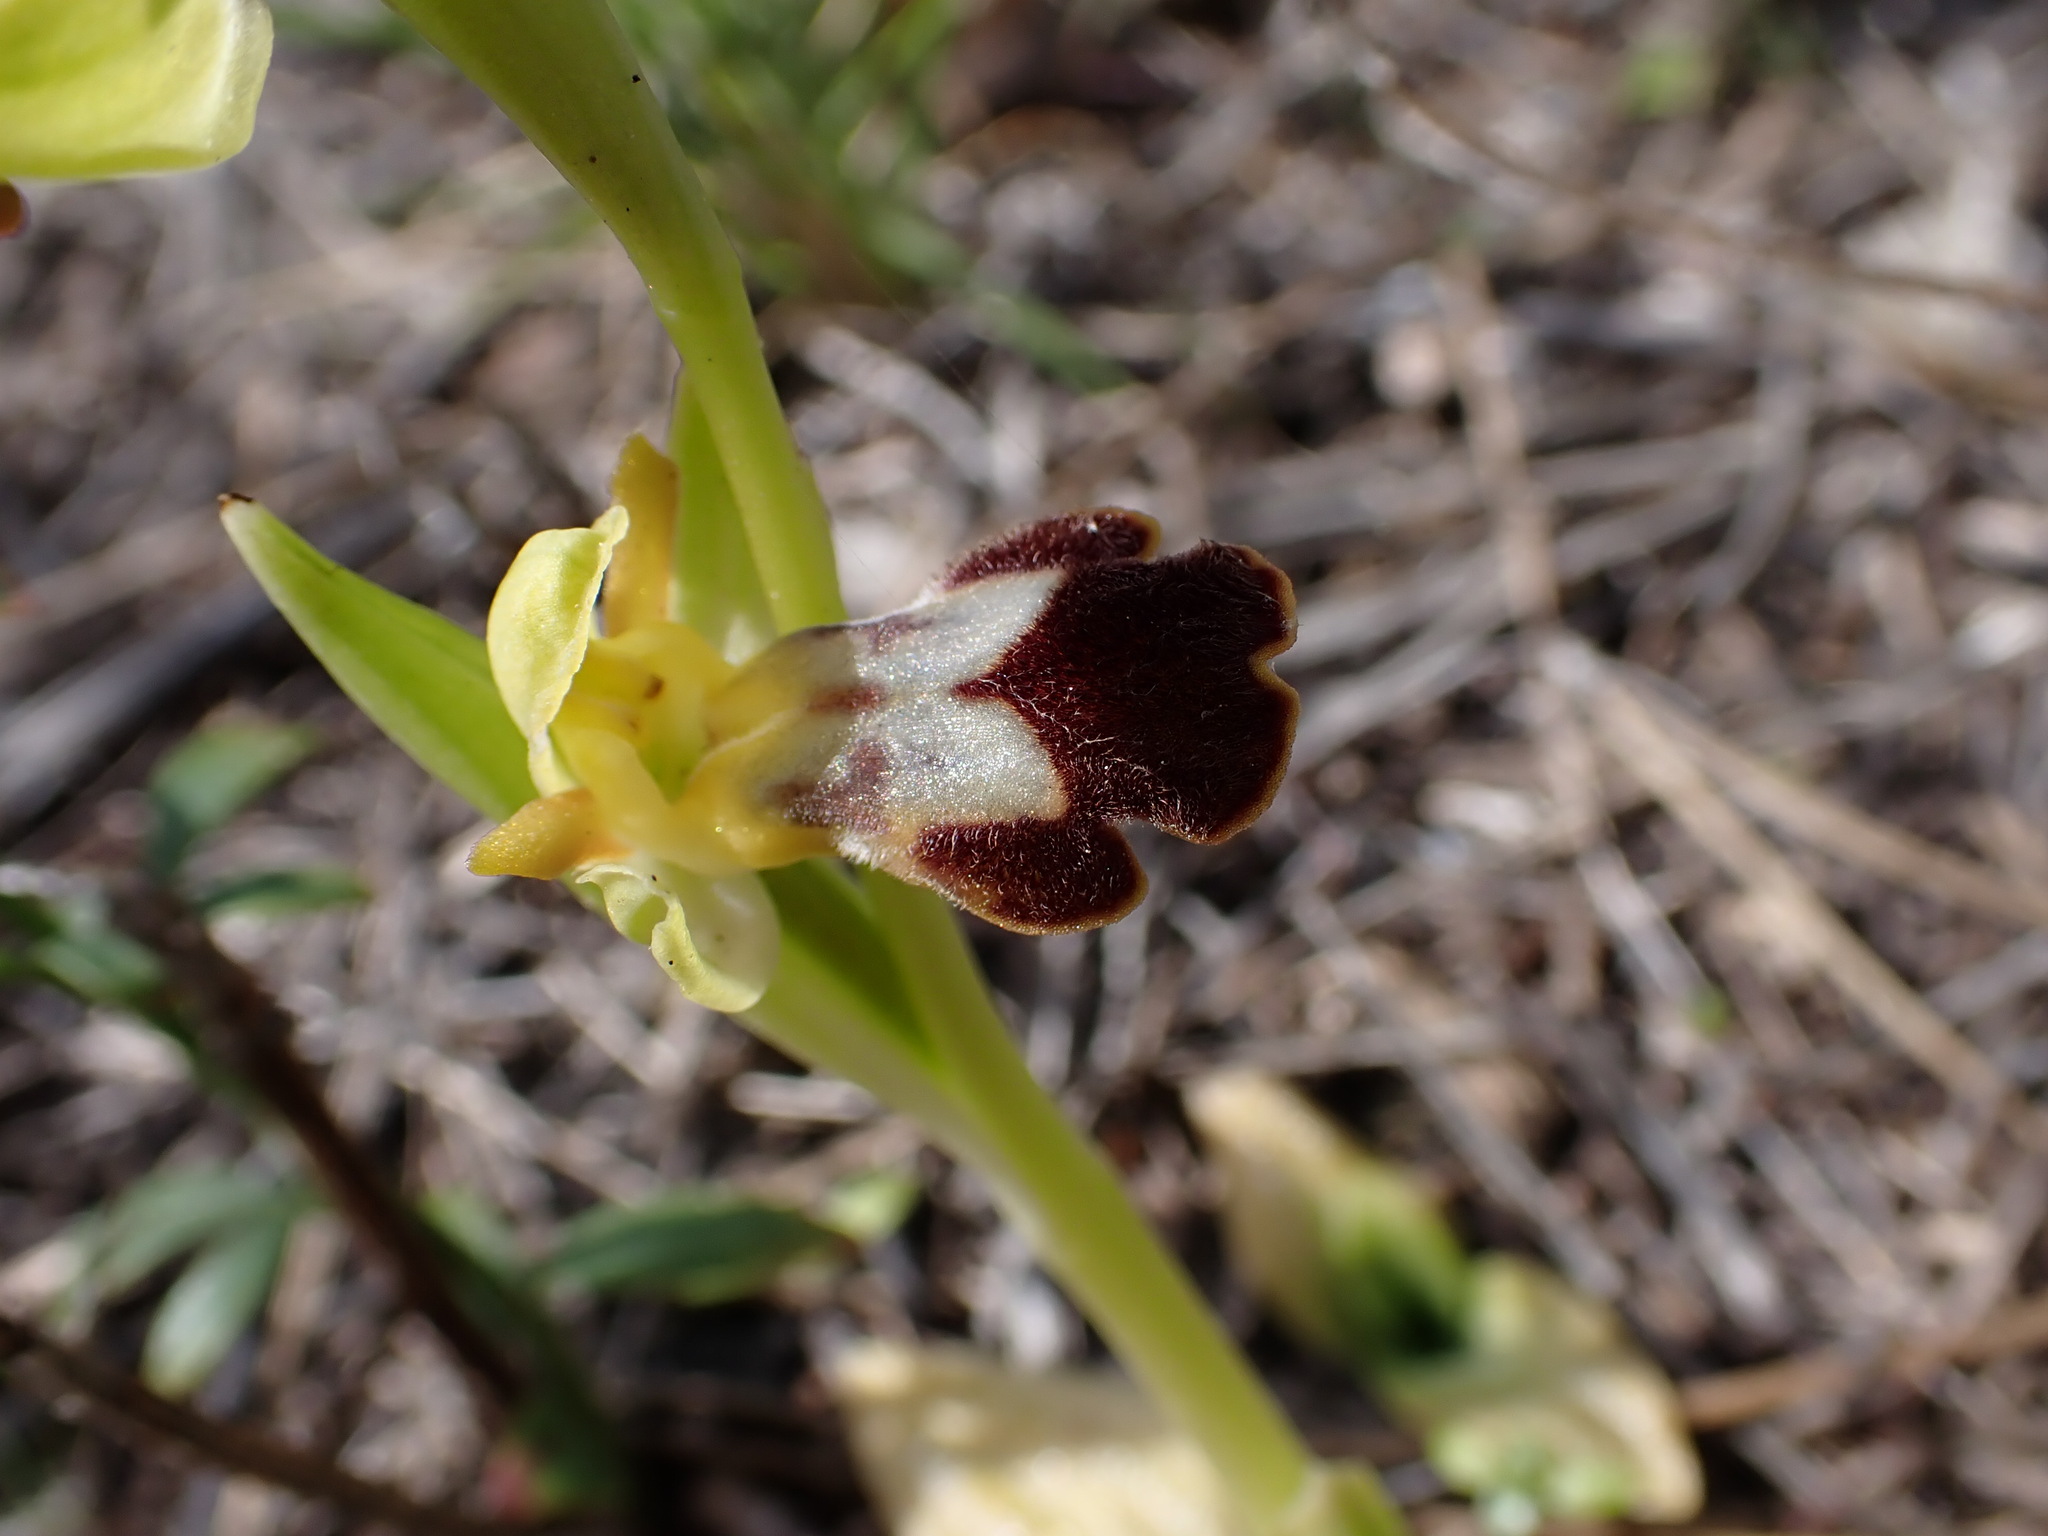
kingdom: Plantae
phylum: Tracheophyta
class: Liliopsida
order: Asparagales
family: Orchidaceae
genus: Ophrys
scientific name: Ophrys fusca
